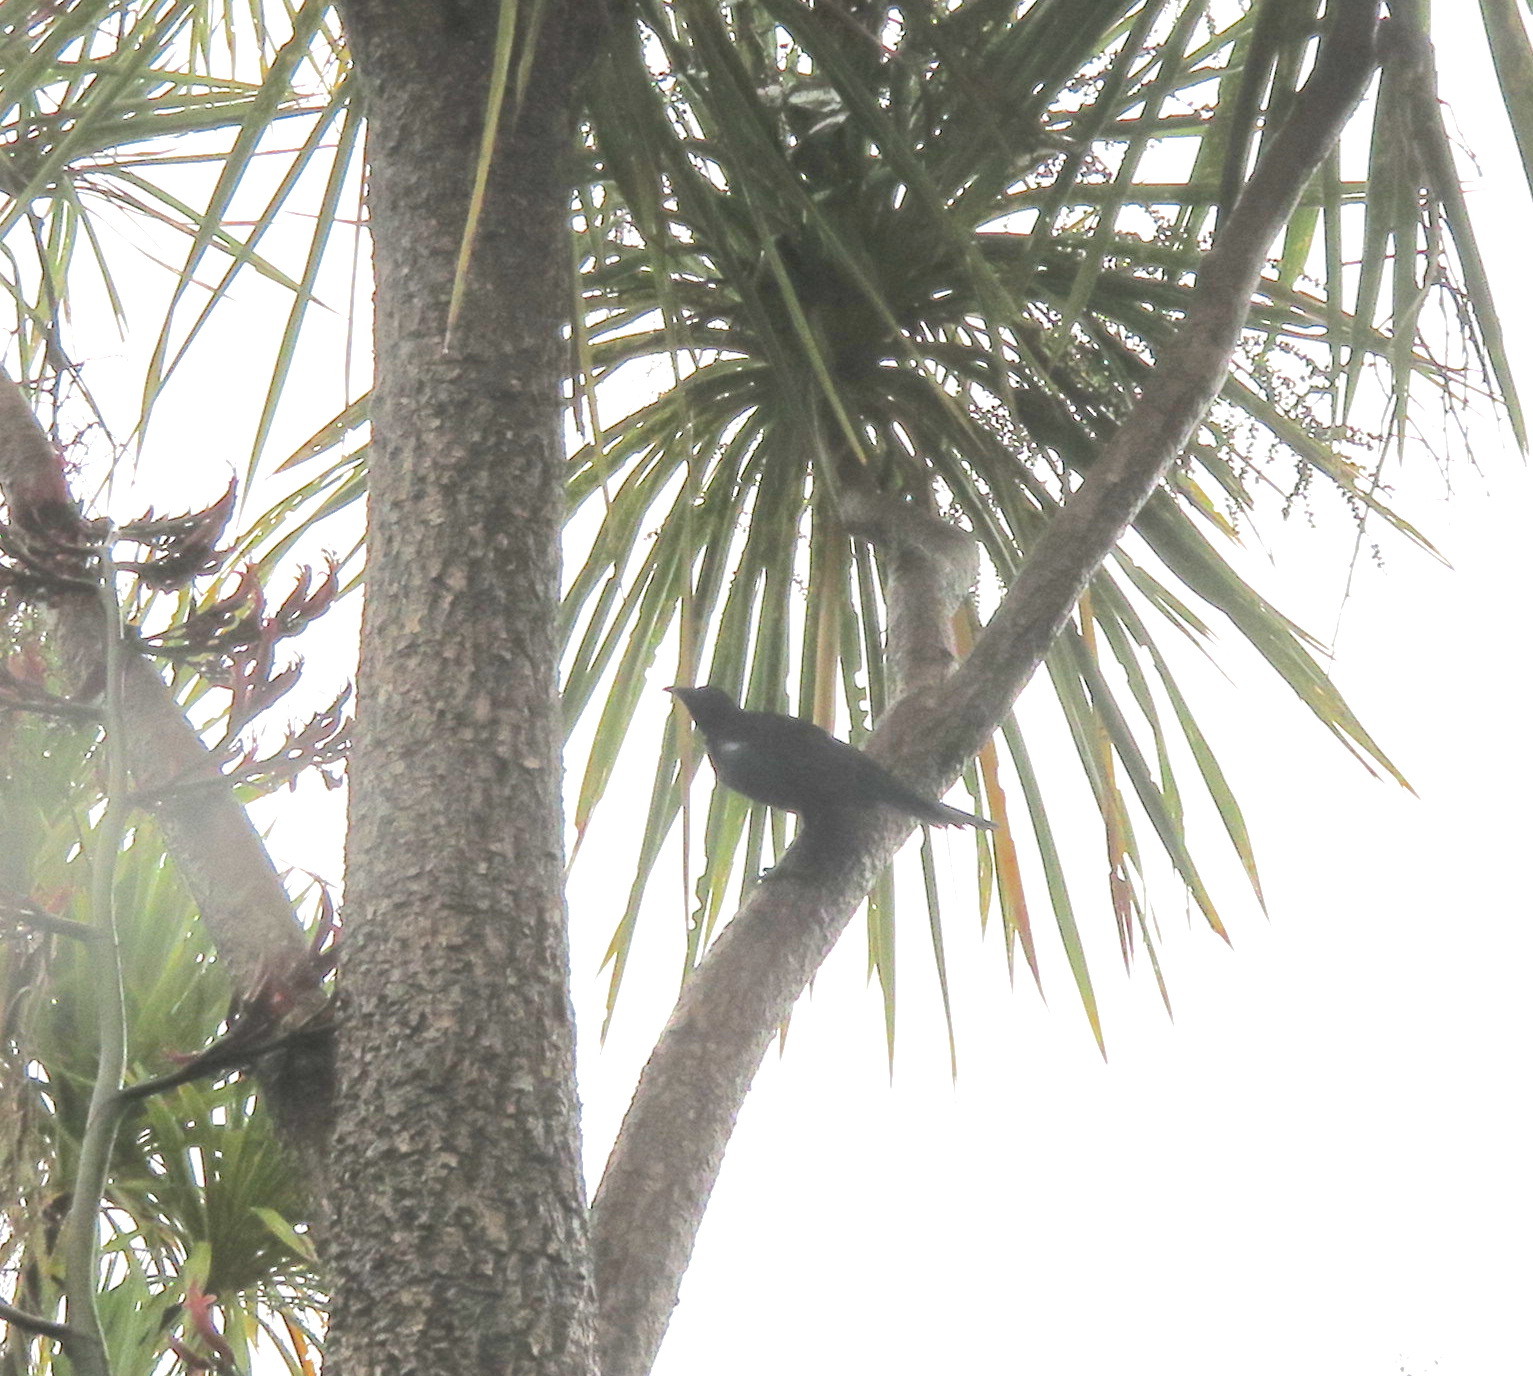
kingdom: Animalia
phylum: Chordata
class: Aves
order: Passeriformes
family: Meliphagidae
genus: Prosthemadera
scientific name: Prosthemadera novaeseelandiae
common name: Tui
